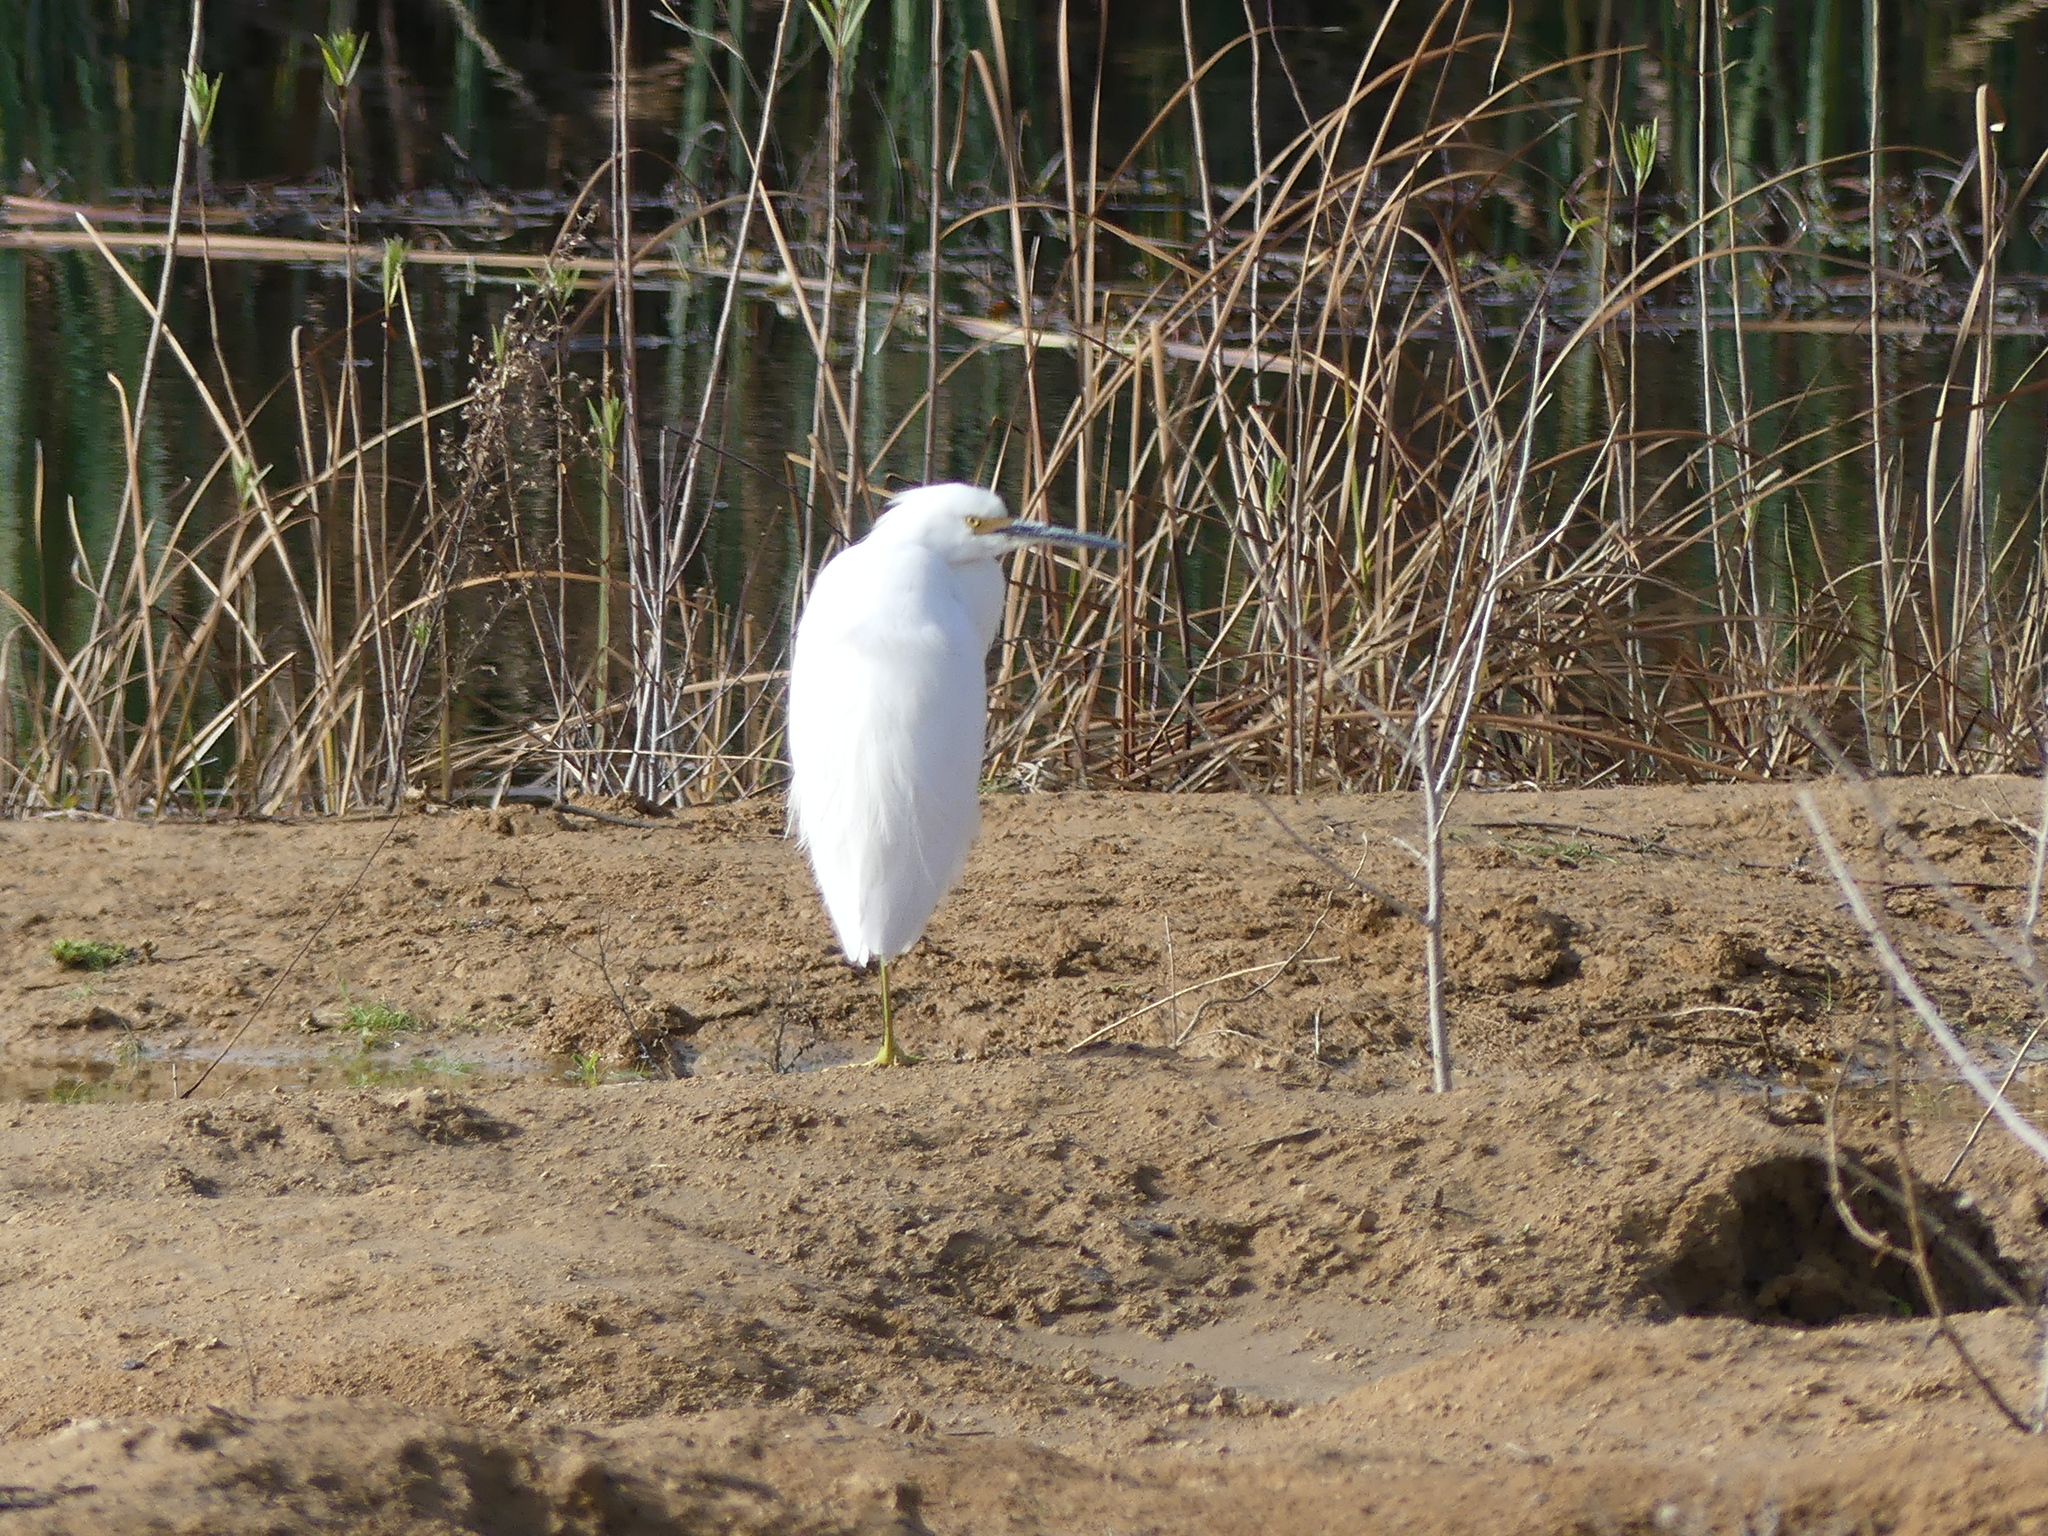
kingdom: Animalia
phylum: Chordata
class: Aves
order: Pelecaniformes
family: Ardeidae
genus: Egretta
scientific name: Egretta thula
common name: Snowy egret
